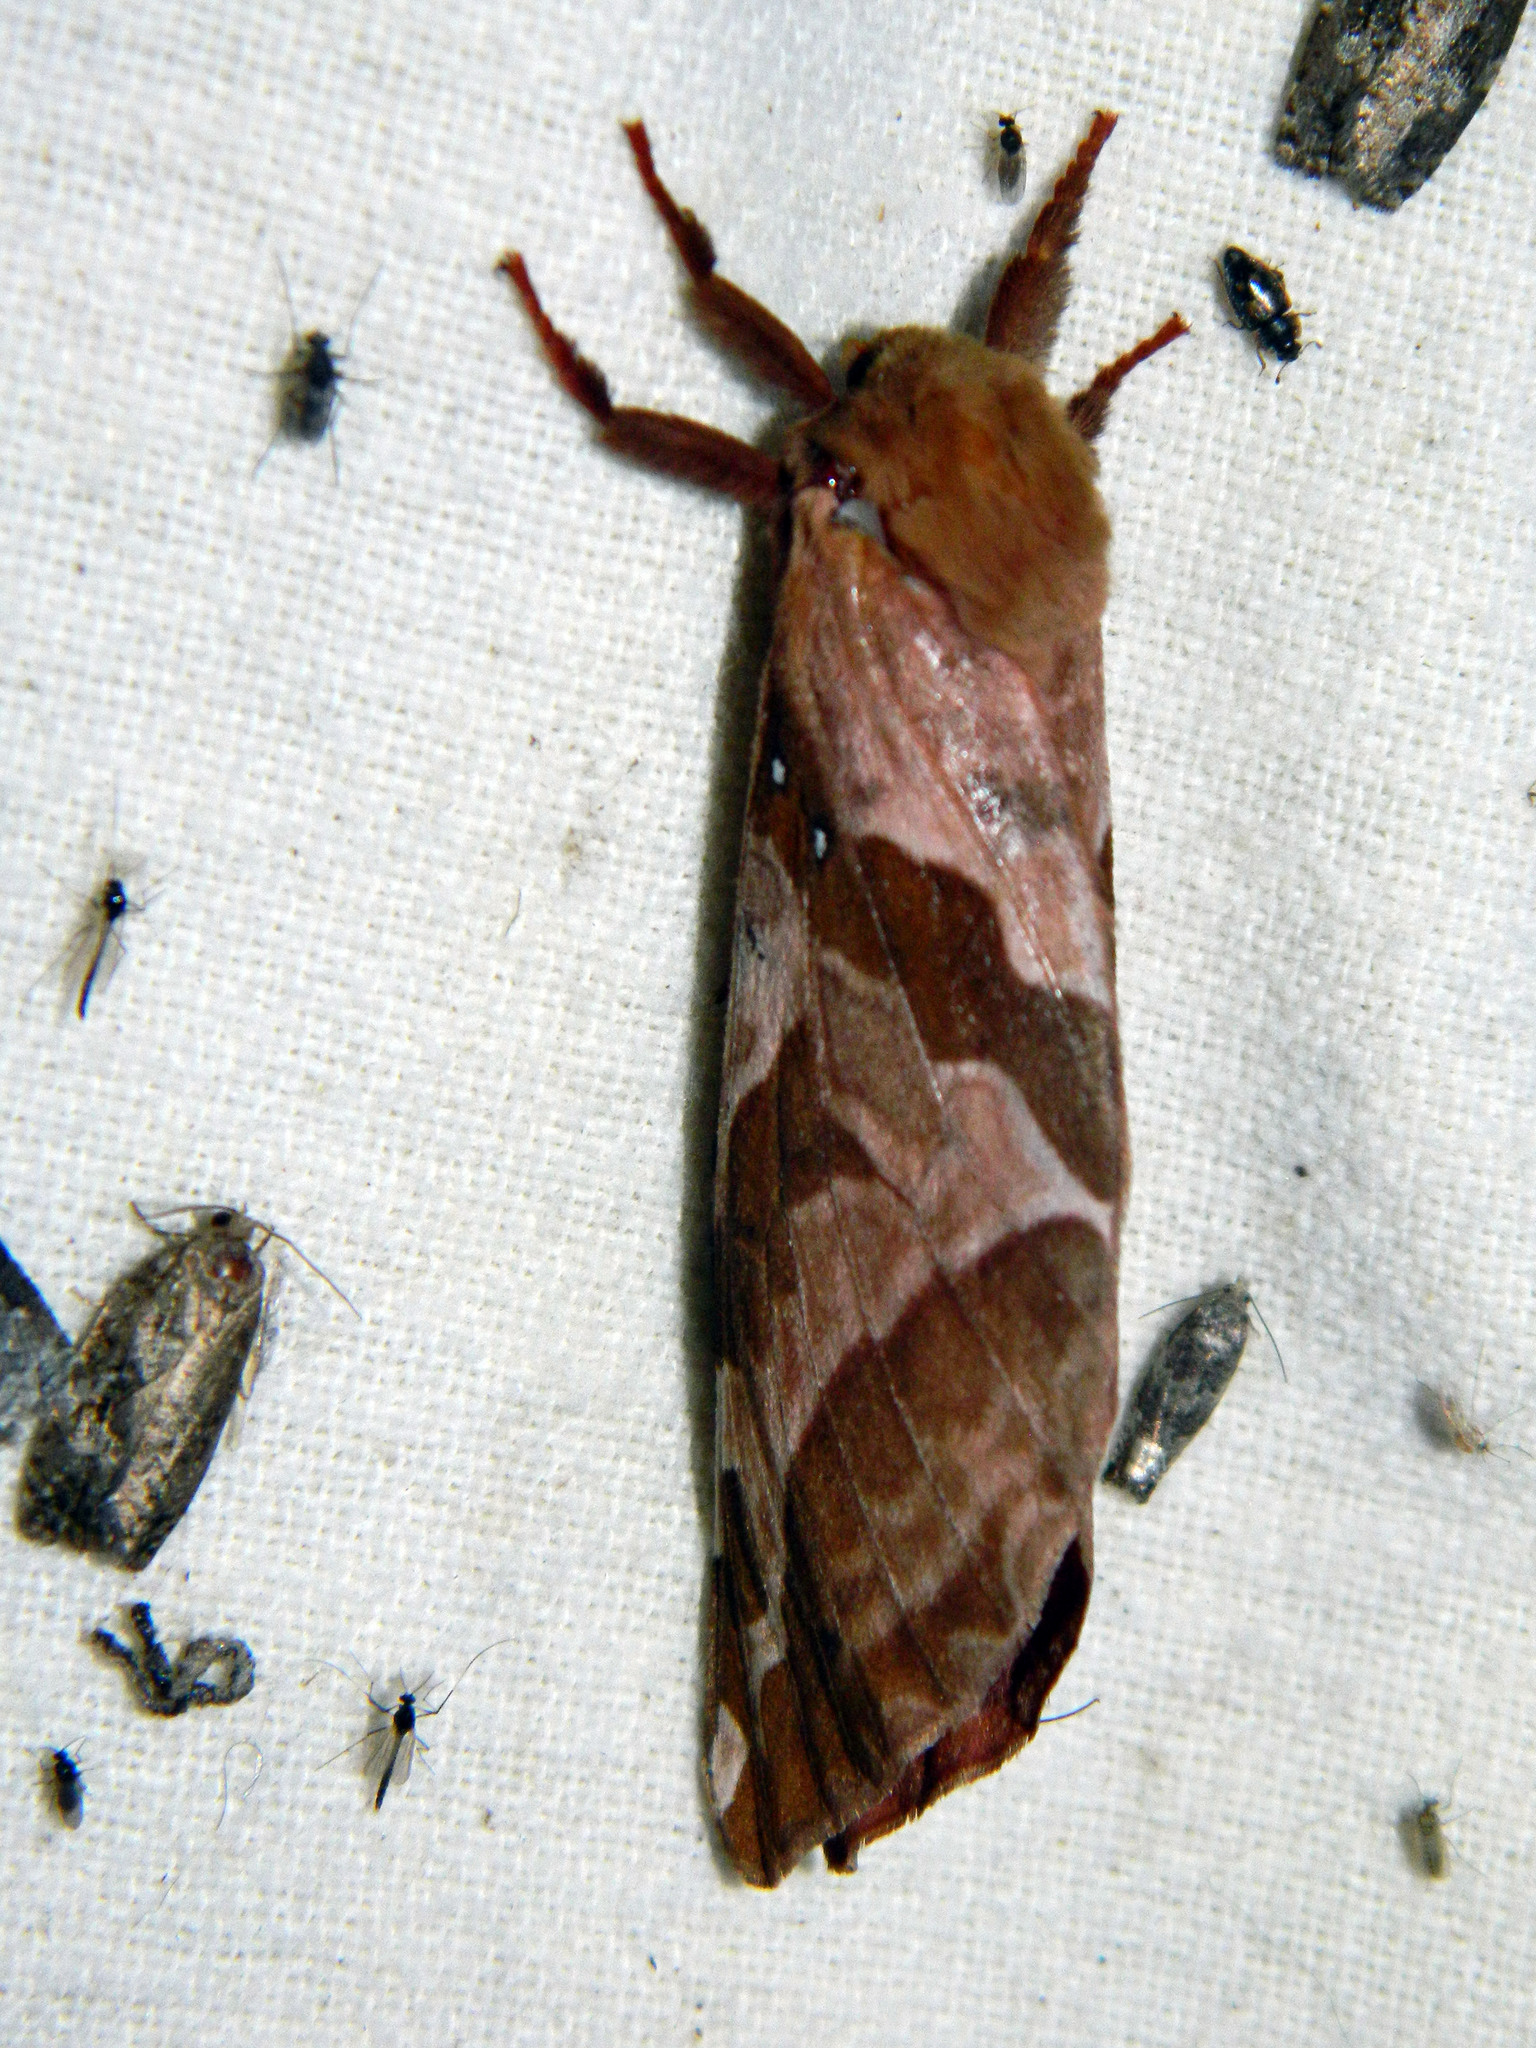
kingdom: Animalia
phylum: Arthropoda
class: Insecta
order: Lepidoptera
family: Hepialidae
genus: Sthenopis
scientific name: Sthenopis purpurascens
